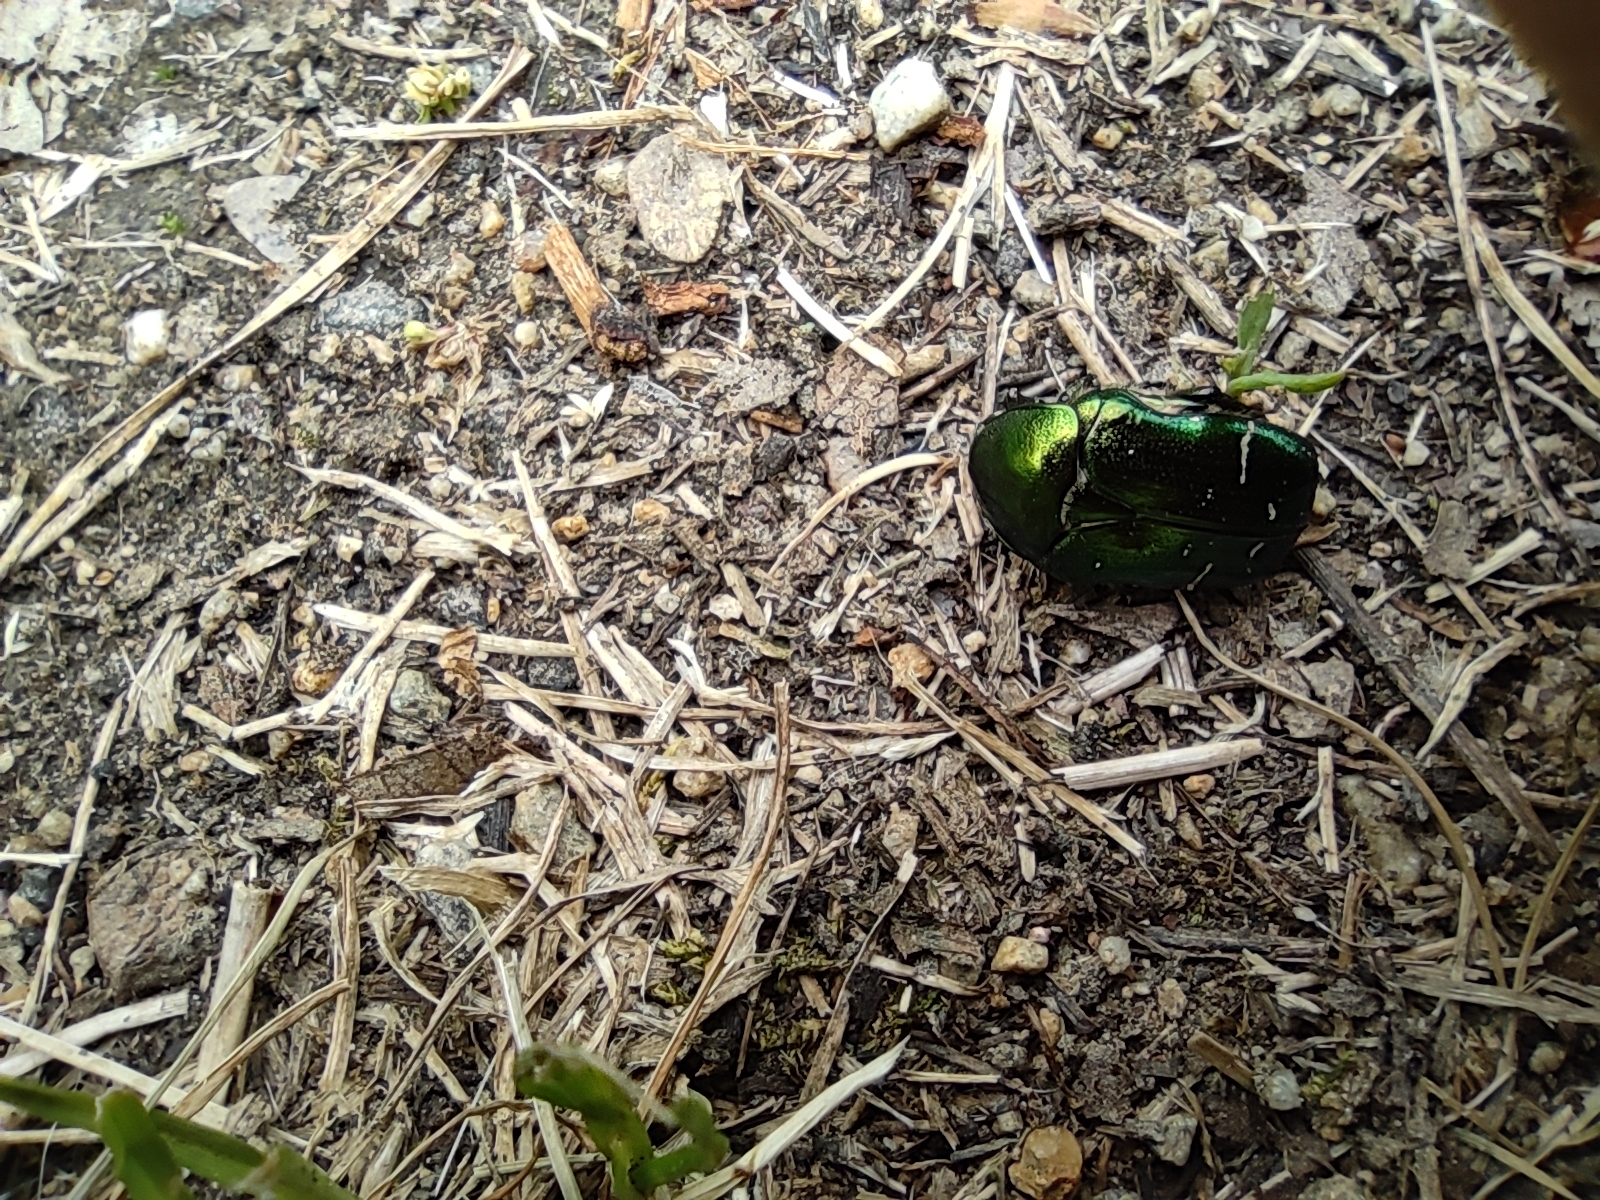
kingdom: Animalia
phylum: Arthropoda
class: Insecta
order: Coleoptera
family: Scarabaeidae
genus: Cetonia
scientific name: Cetonia aurata
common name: Rose chafer
